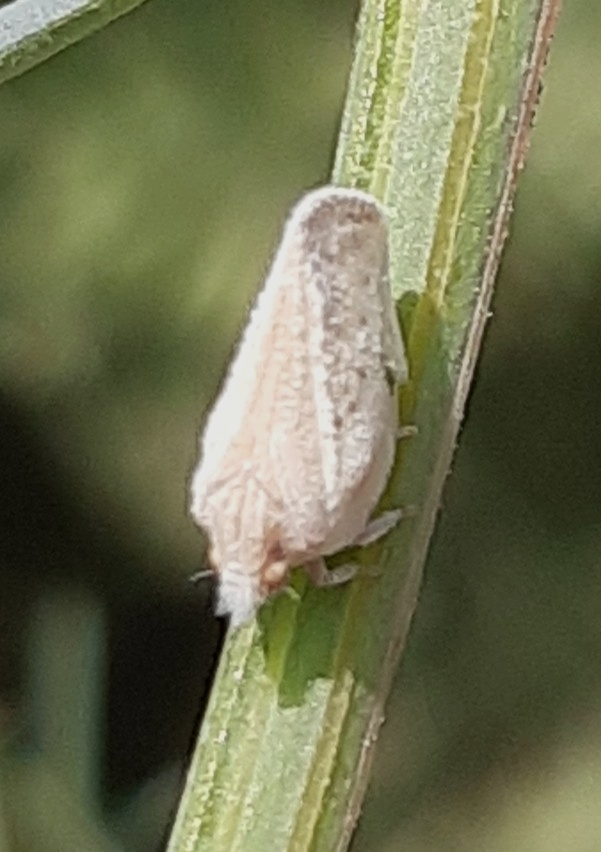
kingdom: Animalia
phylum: Arthropoda
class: Insecta
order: Hemiptera
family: Flatidae
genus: Phantia
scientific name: Phantia subquadrata
